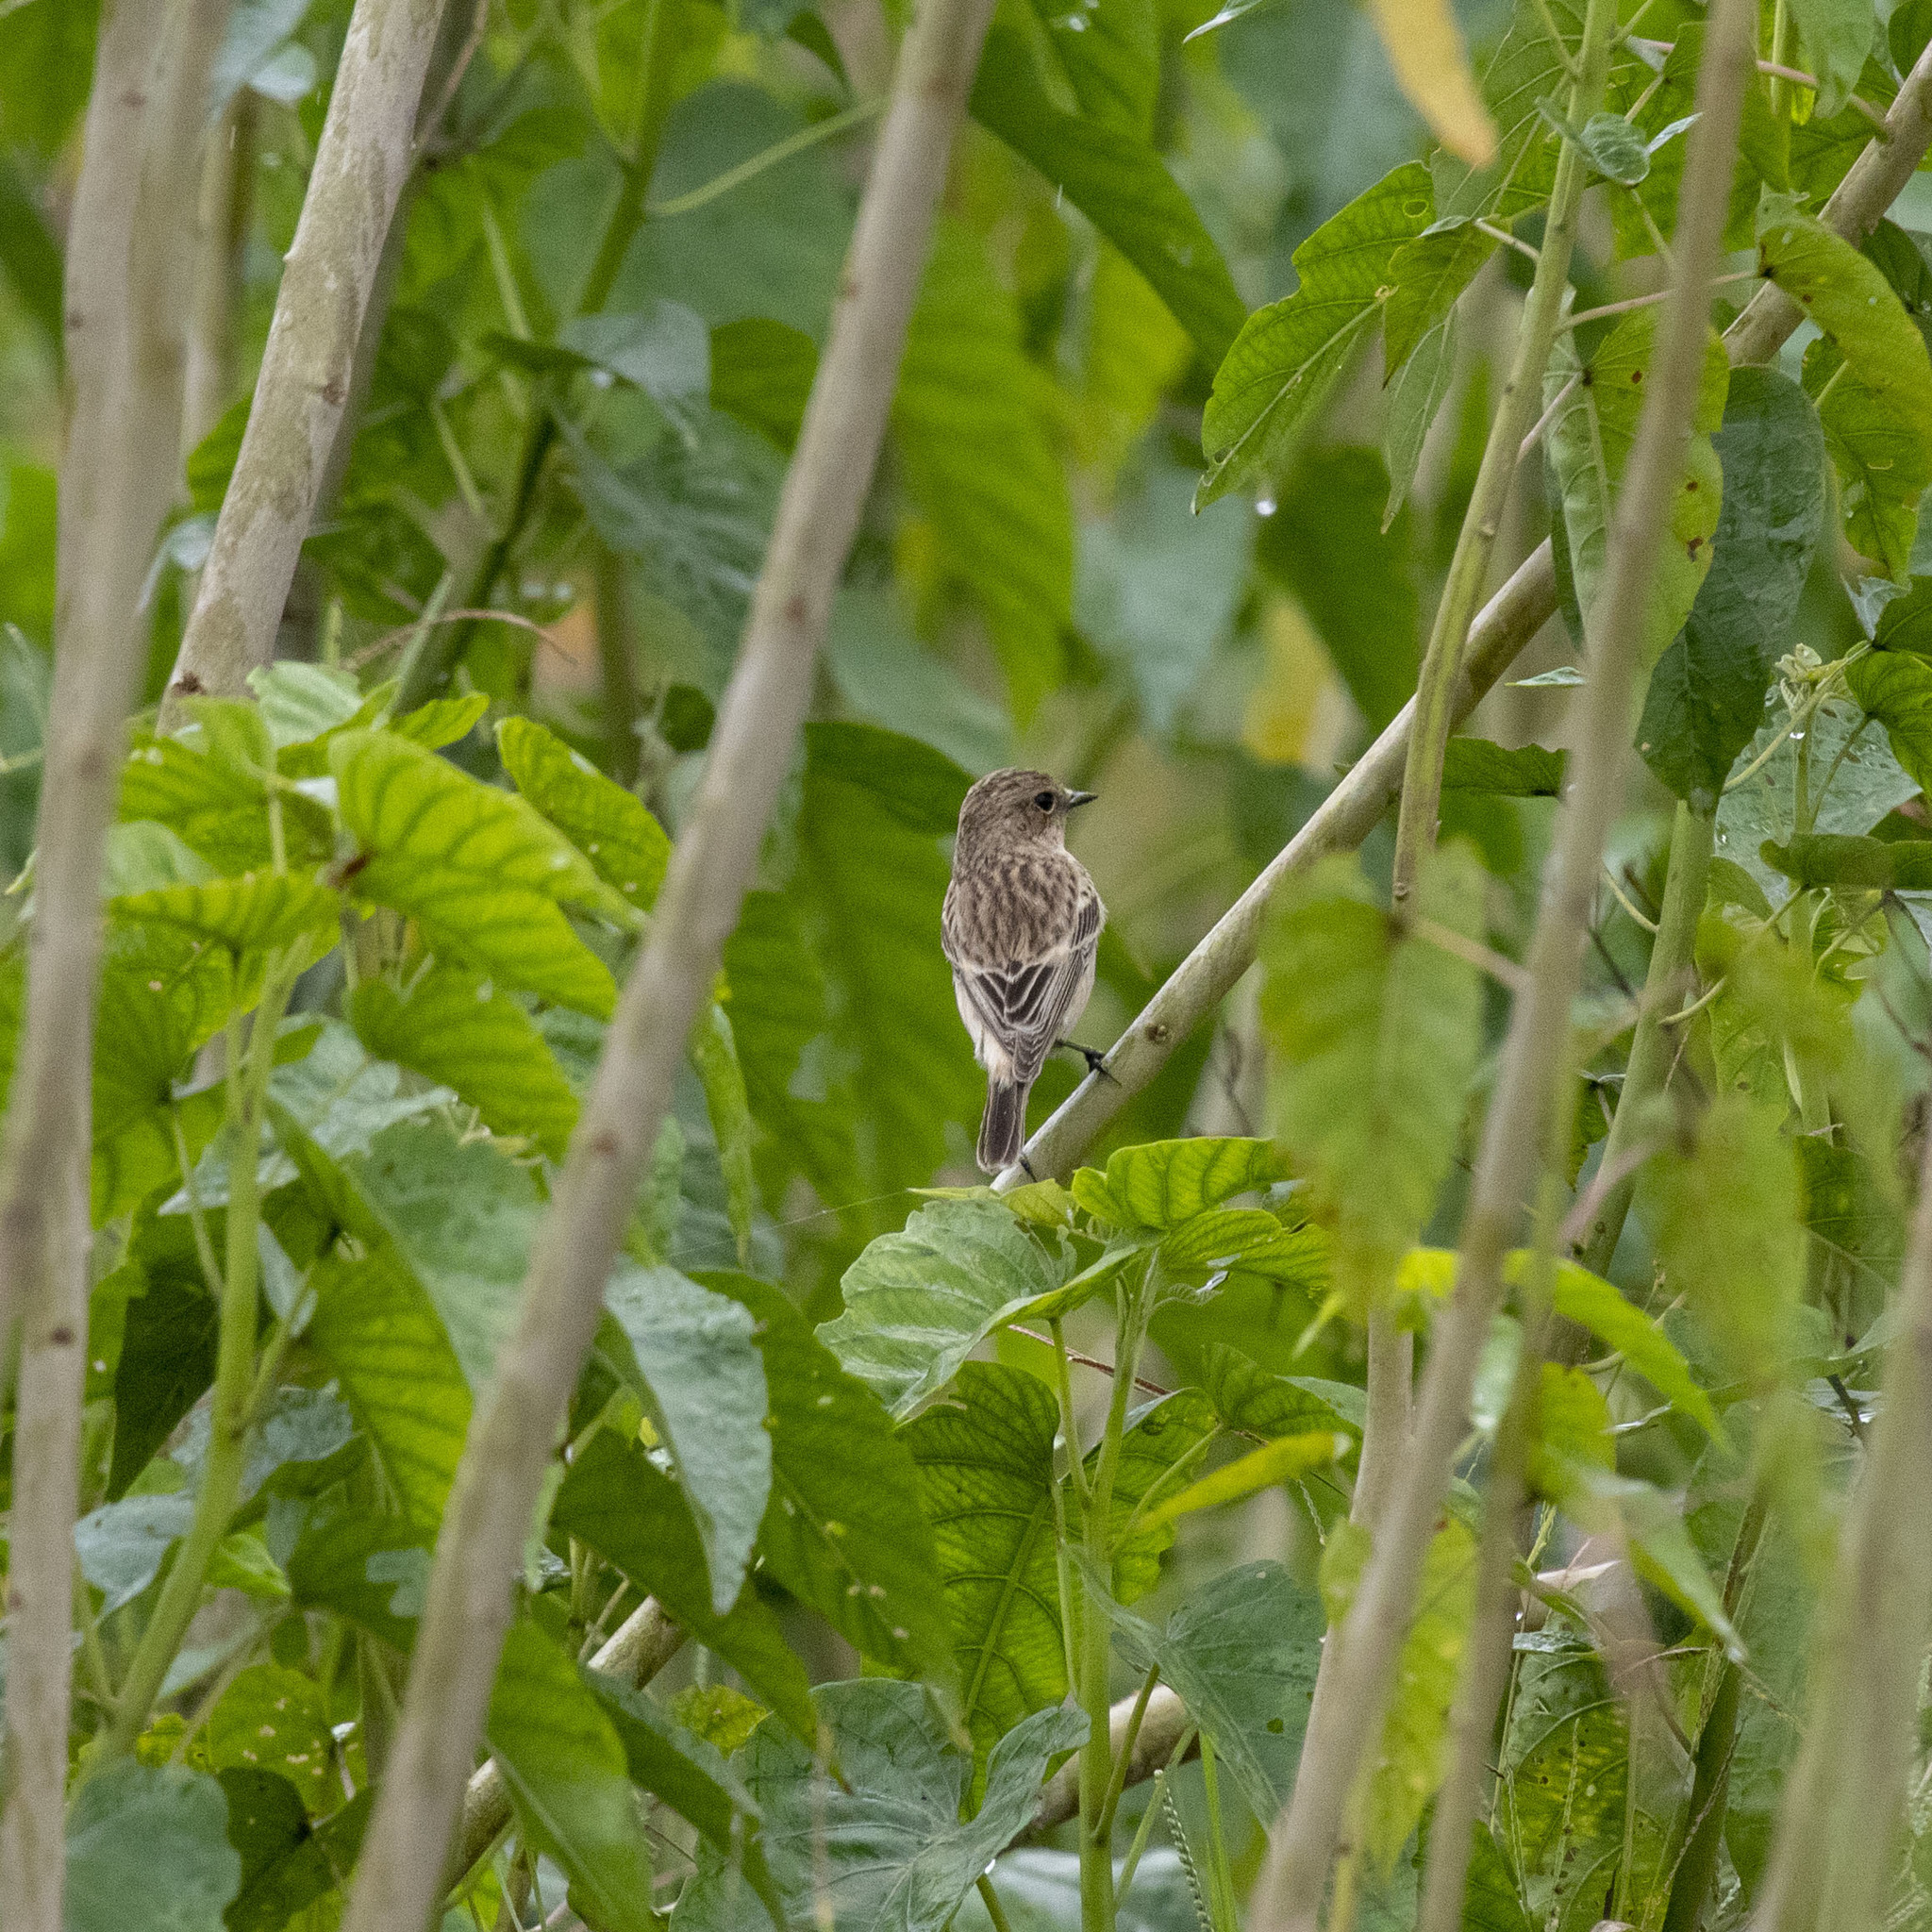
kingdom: Animalia
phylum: Chordata
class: Aves
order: Passeriformes
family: Muscicapidae
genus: Saxicola
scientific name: Saxicola maurus
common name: Siberian stonechat
